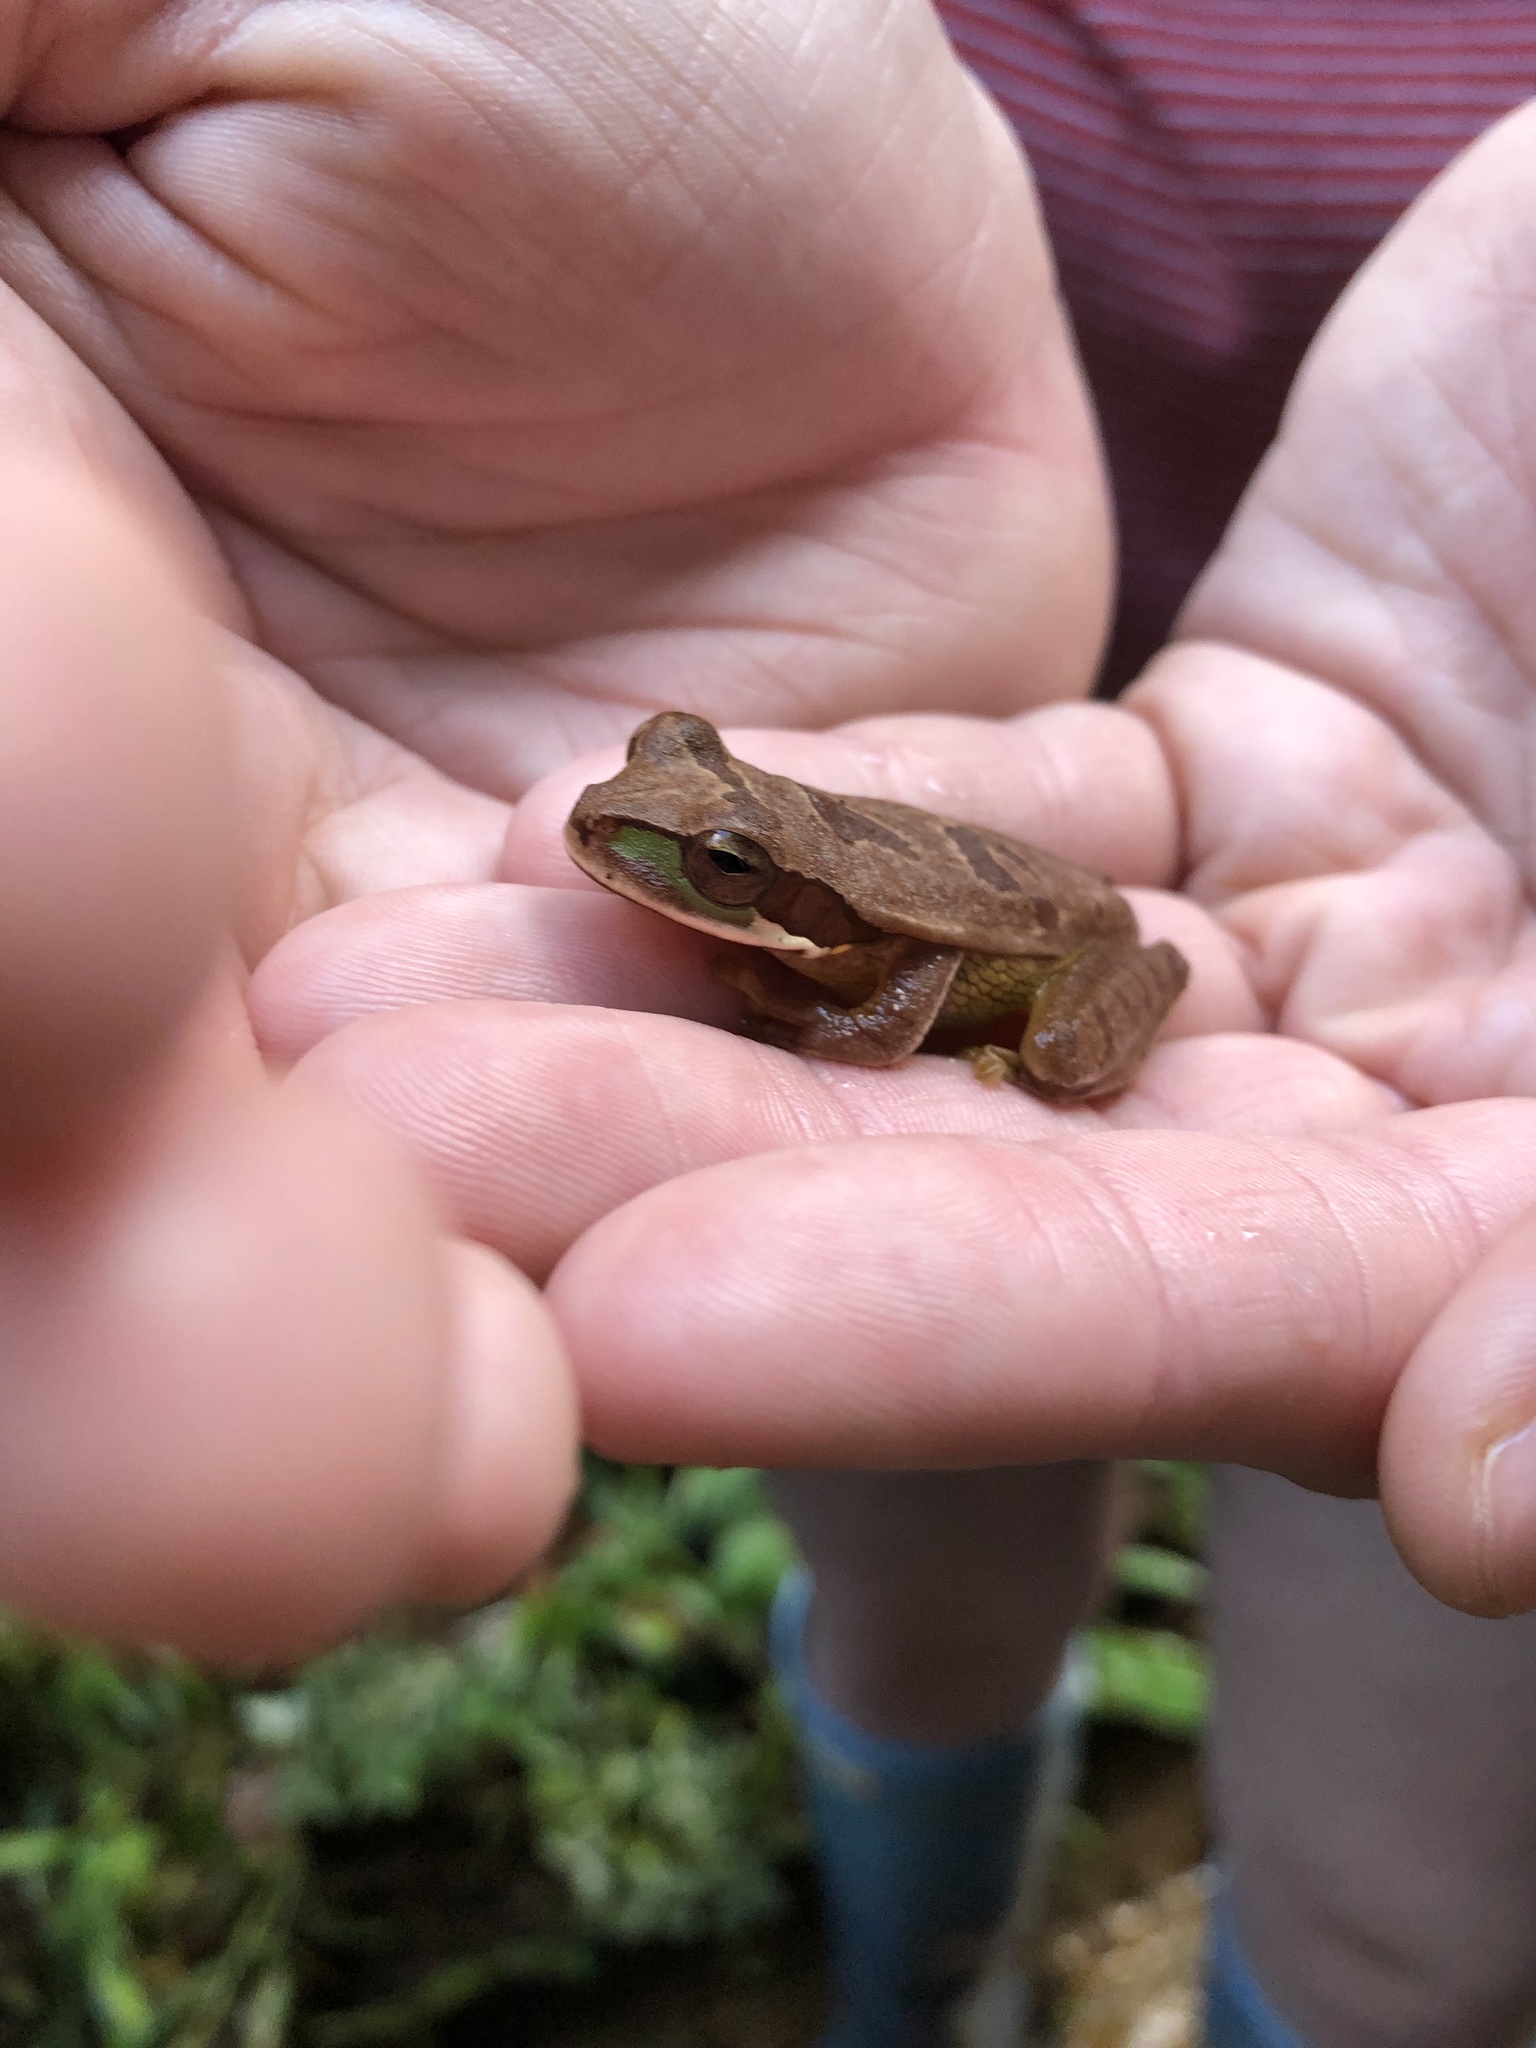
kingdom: Animalia
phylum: Chordata
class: Amphibia
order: Anura
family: Hylidae
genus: Smilisca
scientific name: Smilisca phaeota
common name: Central american smilisca
